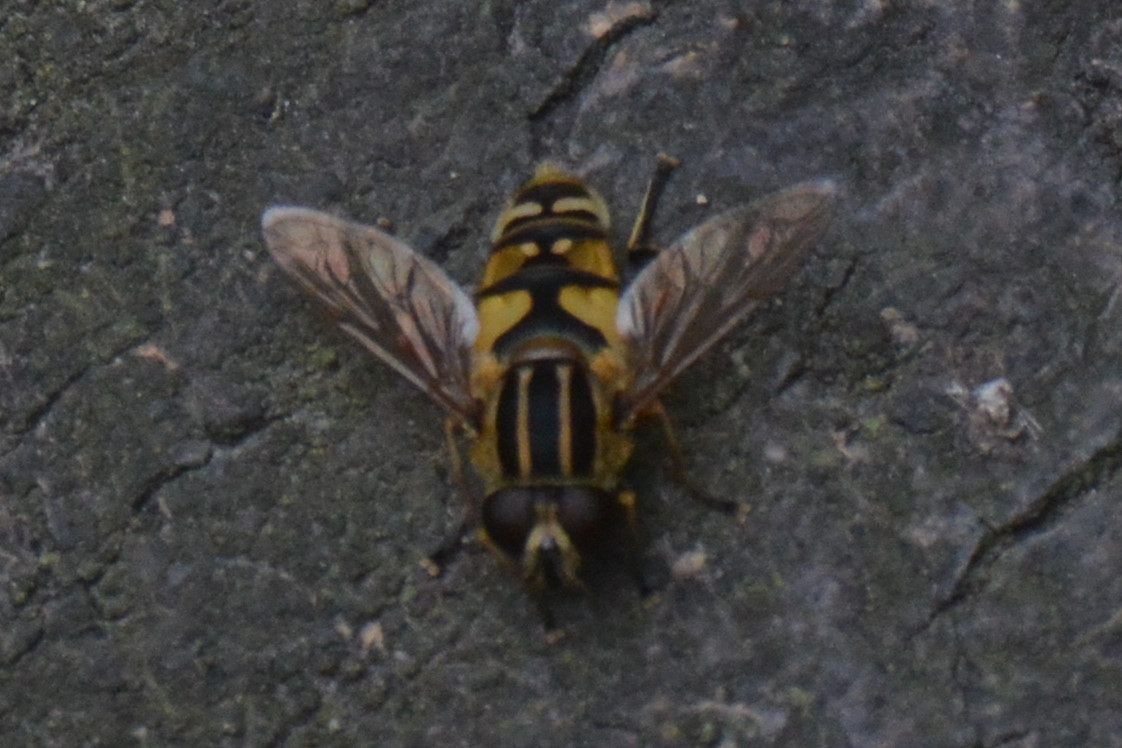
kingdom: Animalia
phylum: Arthropoda
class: Insecta
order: Diptera
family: Syrphidae
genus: Helophilus
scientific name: Helophilus pendulus
